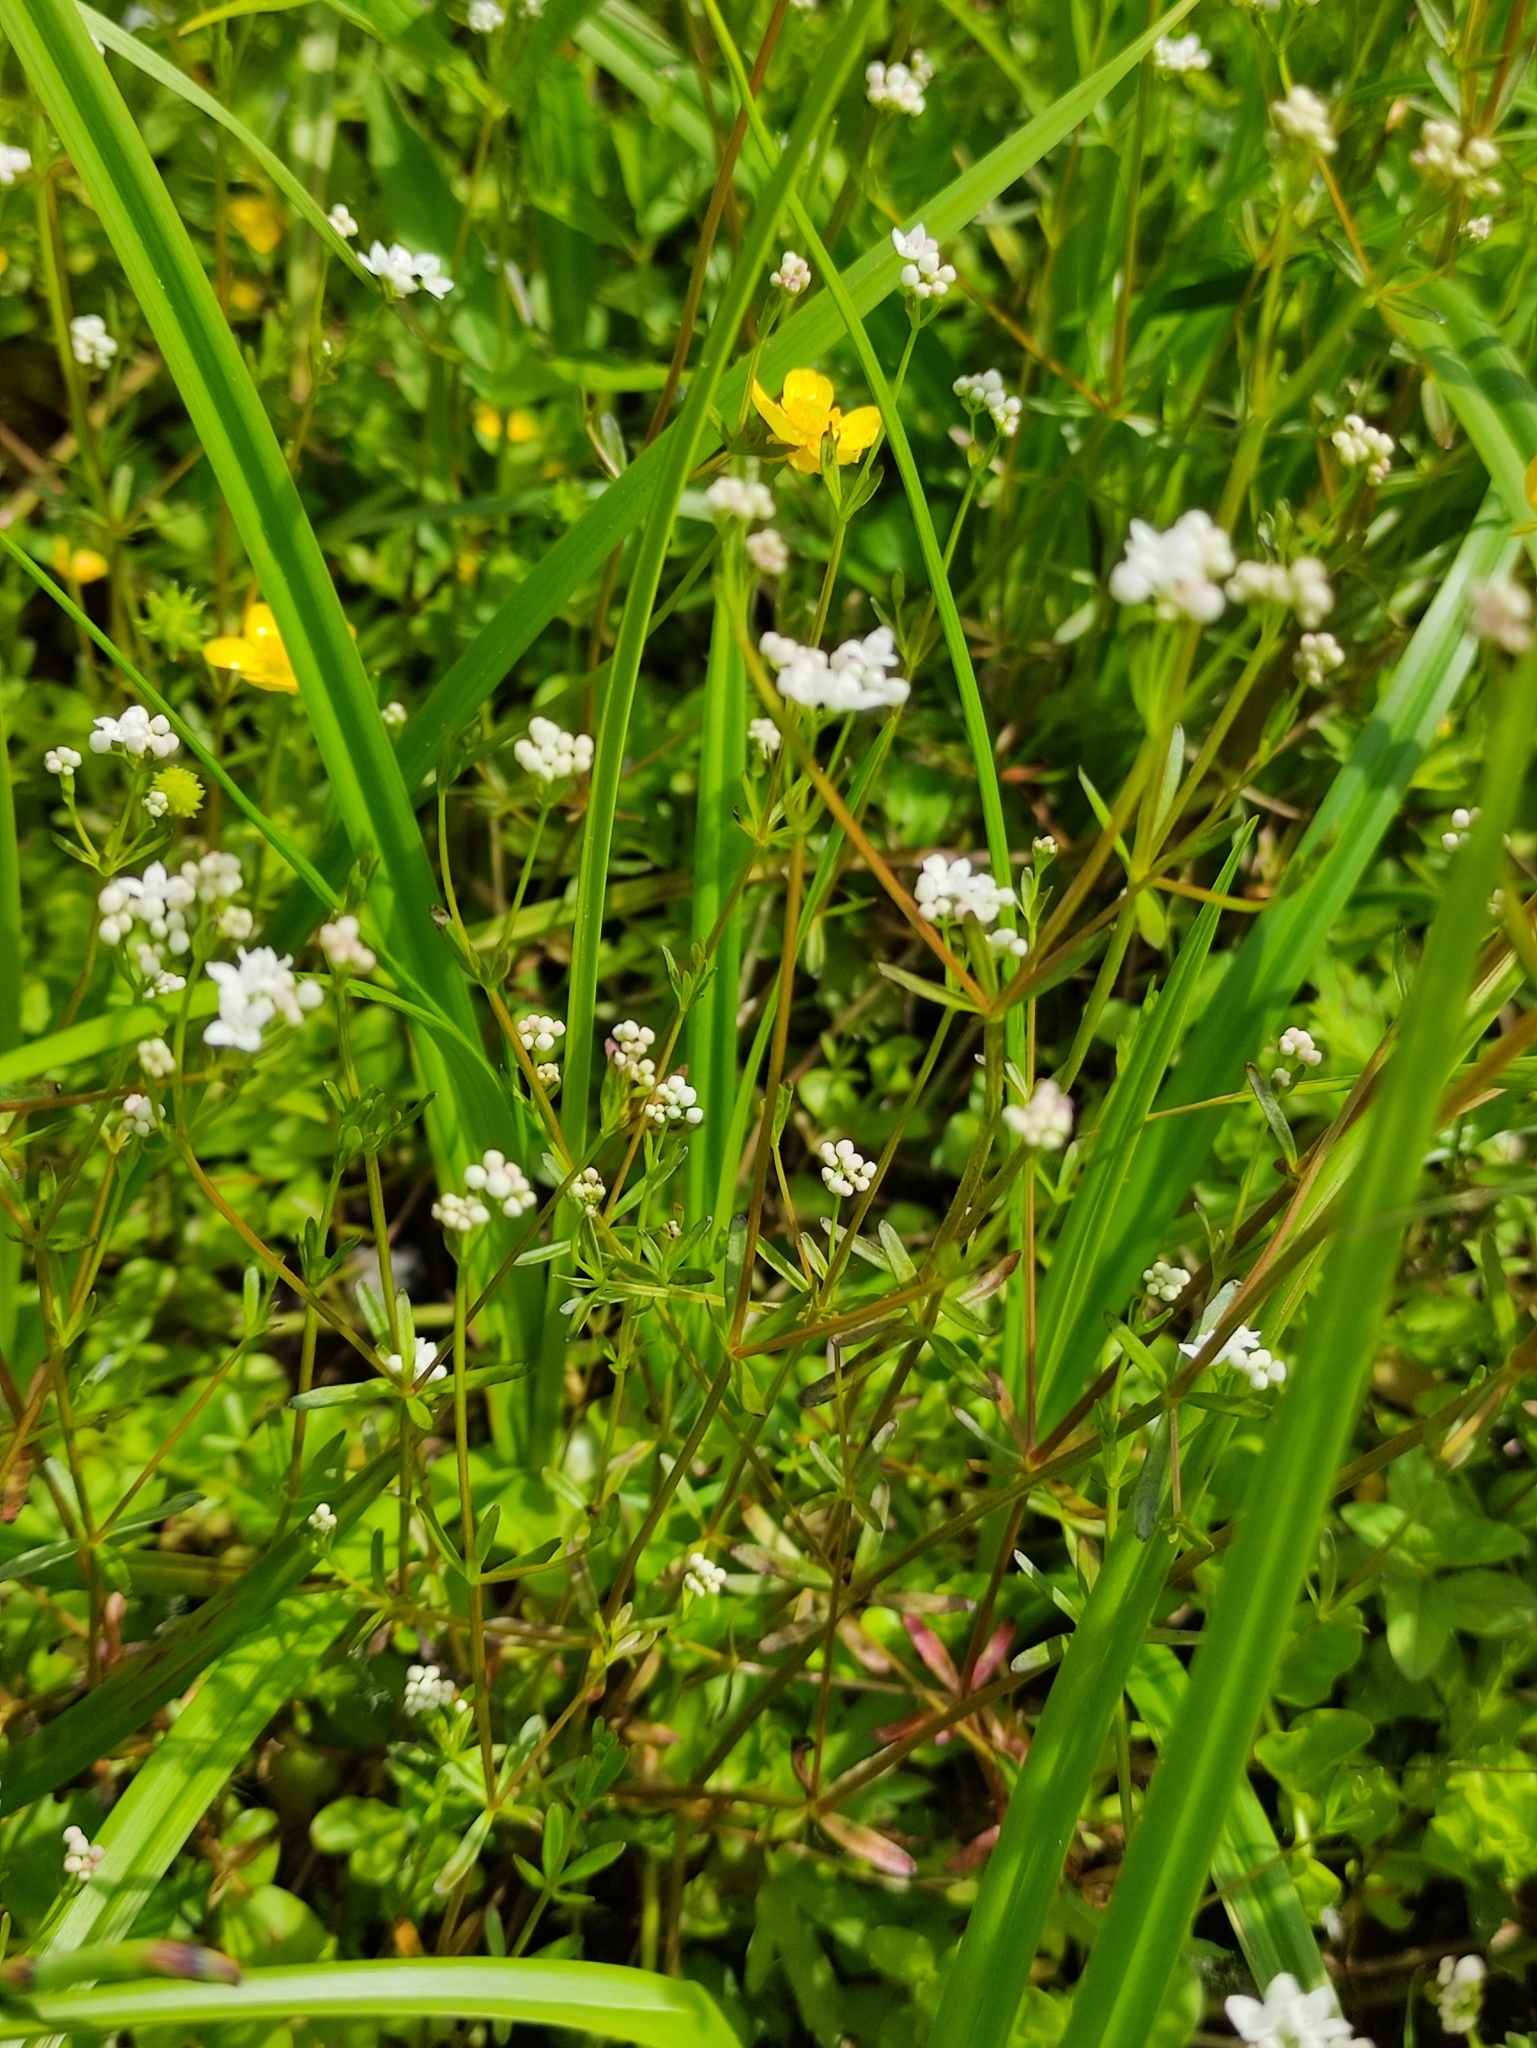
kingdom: Plantae
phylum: Tracheophyta
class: Magnoliopsida
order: Gentianales
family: Rubiaceae
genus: Galium
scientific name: Galium palustre
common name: Common marsh-bedstraw
